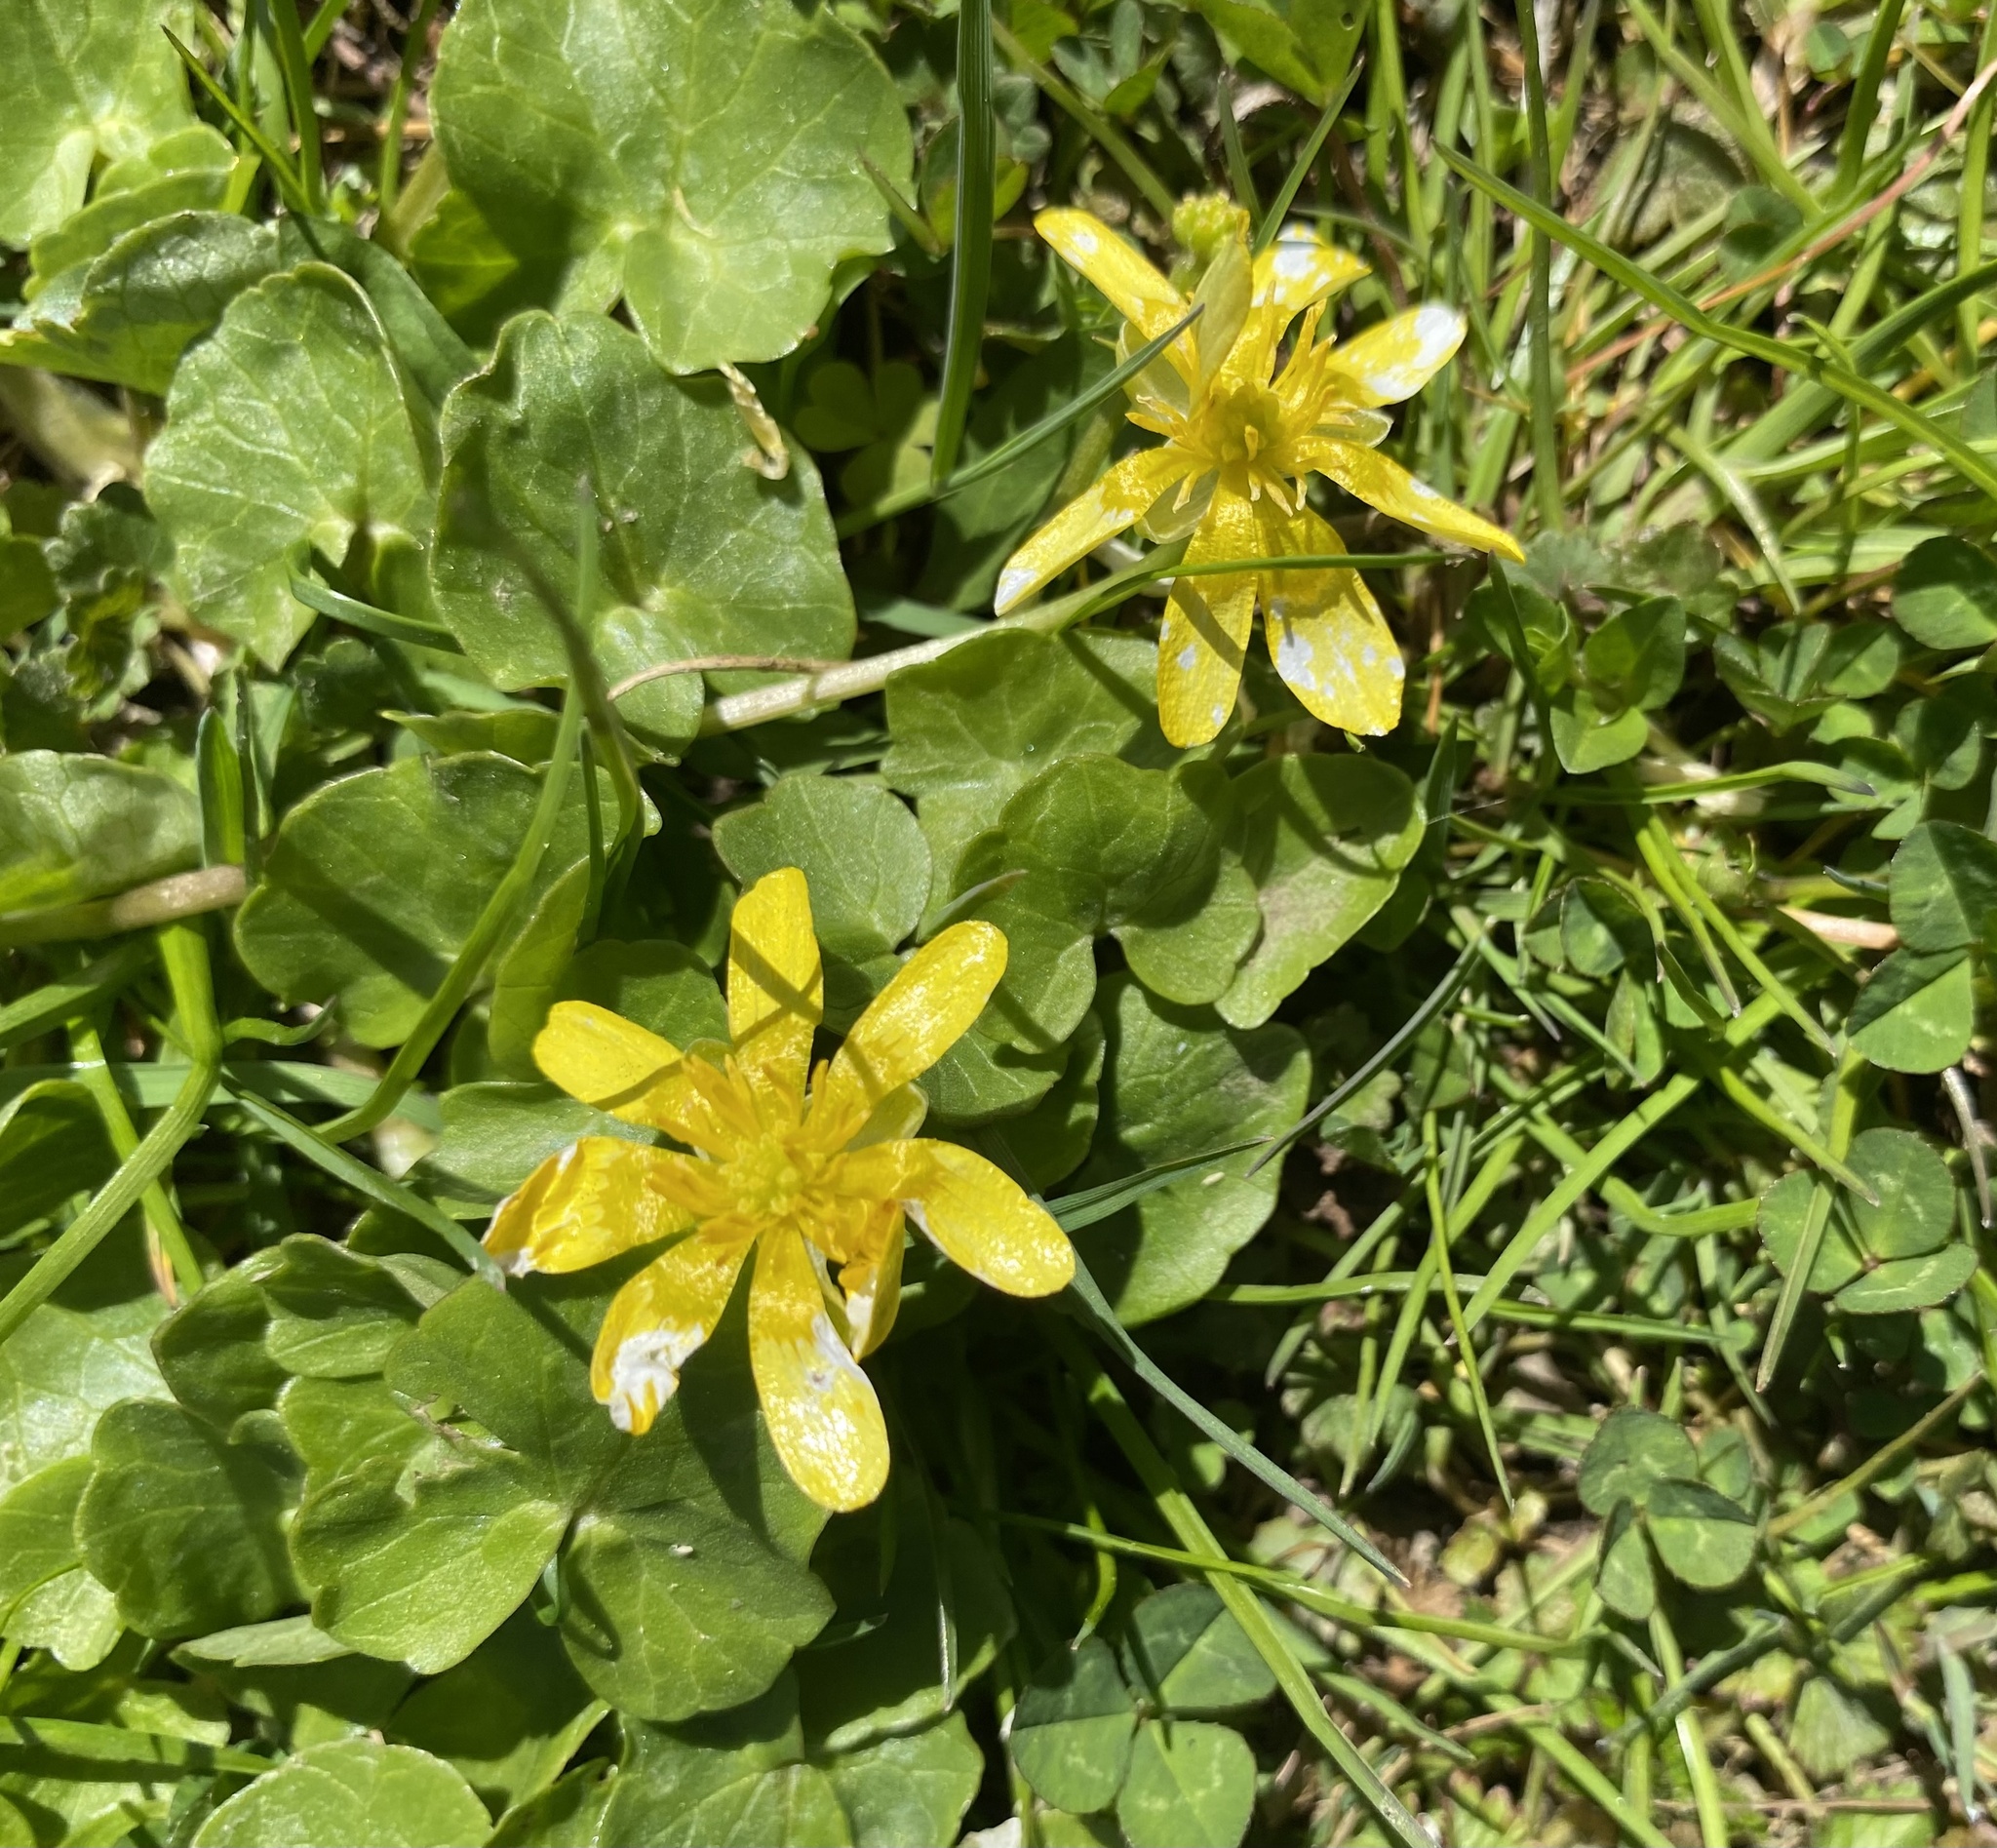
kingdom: Plantae
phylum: Tracheophyta
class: Magnoliopsida
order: Ranunculales
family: Ranunculaceae
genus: Ficaria
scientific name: Ficaria verna
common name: Lesser celandine
